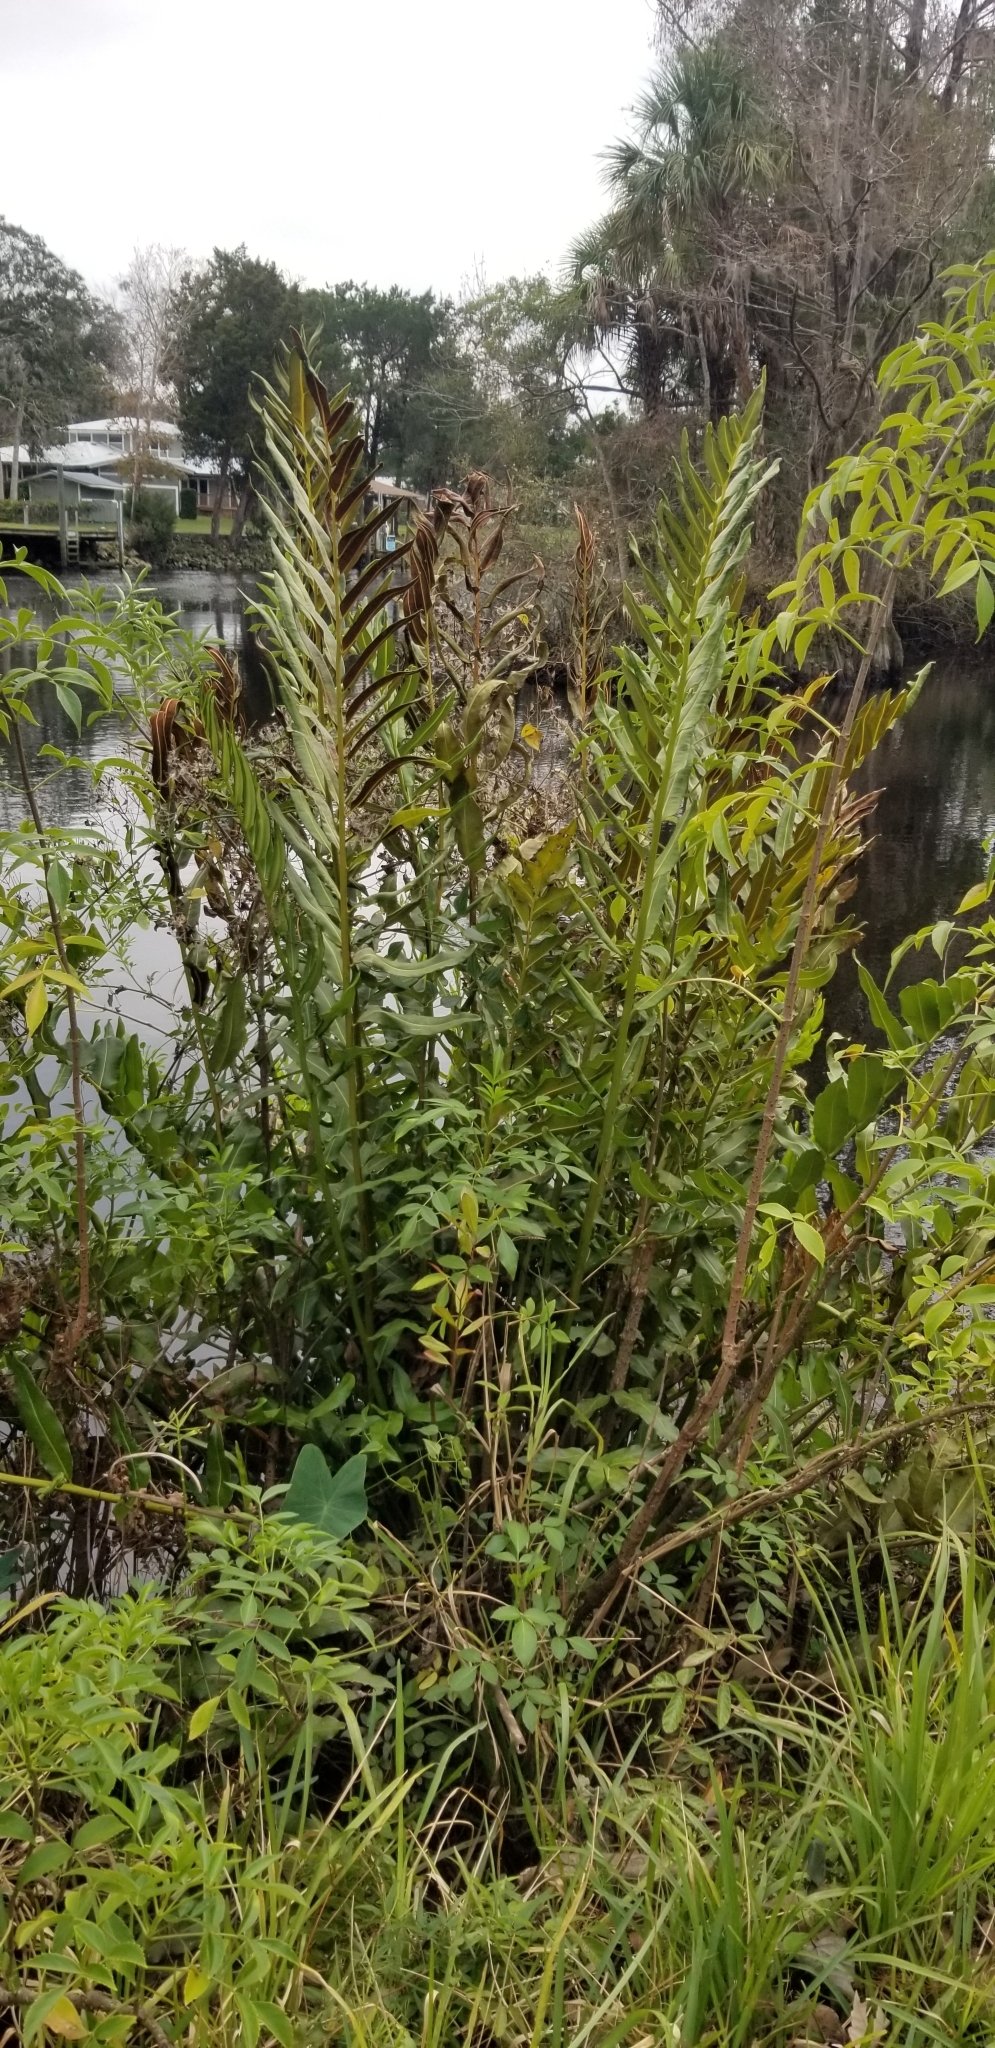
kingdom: Plantae
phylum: Tracheophyta
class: Polypodiopsida
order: Polypodiales
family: Pteridaceae
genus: Acrostichum
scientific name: Acrostichum danaeifolium
